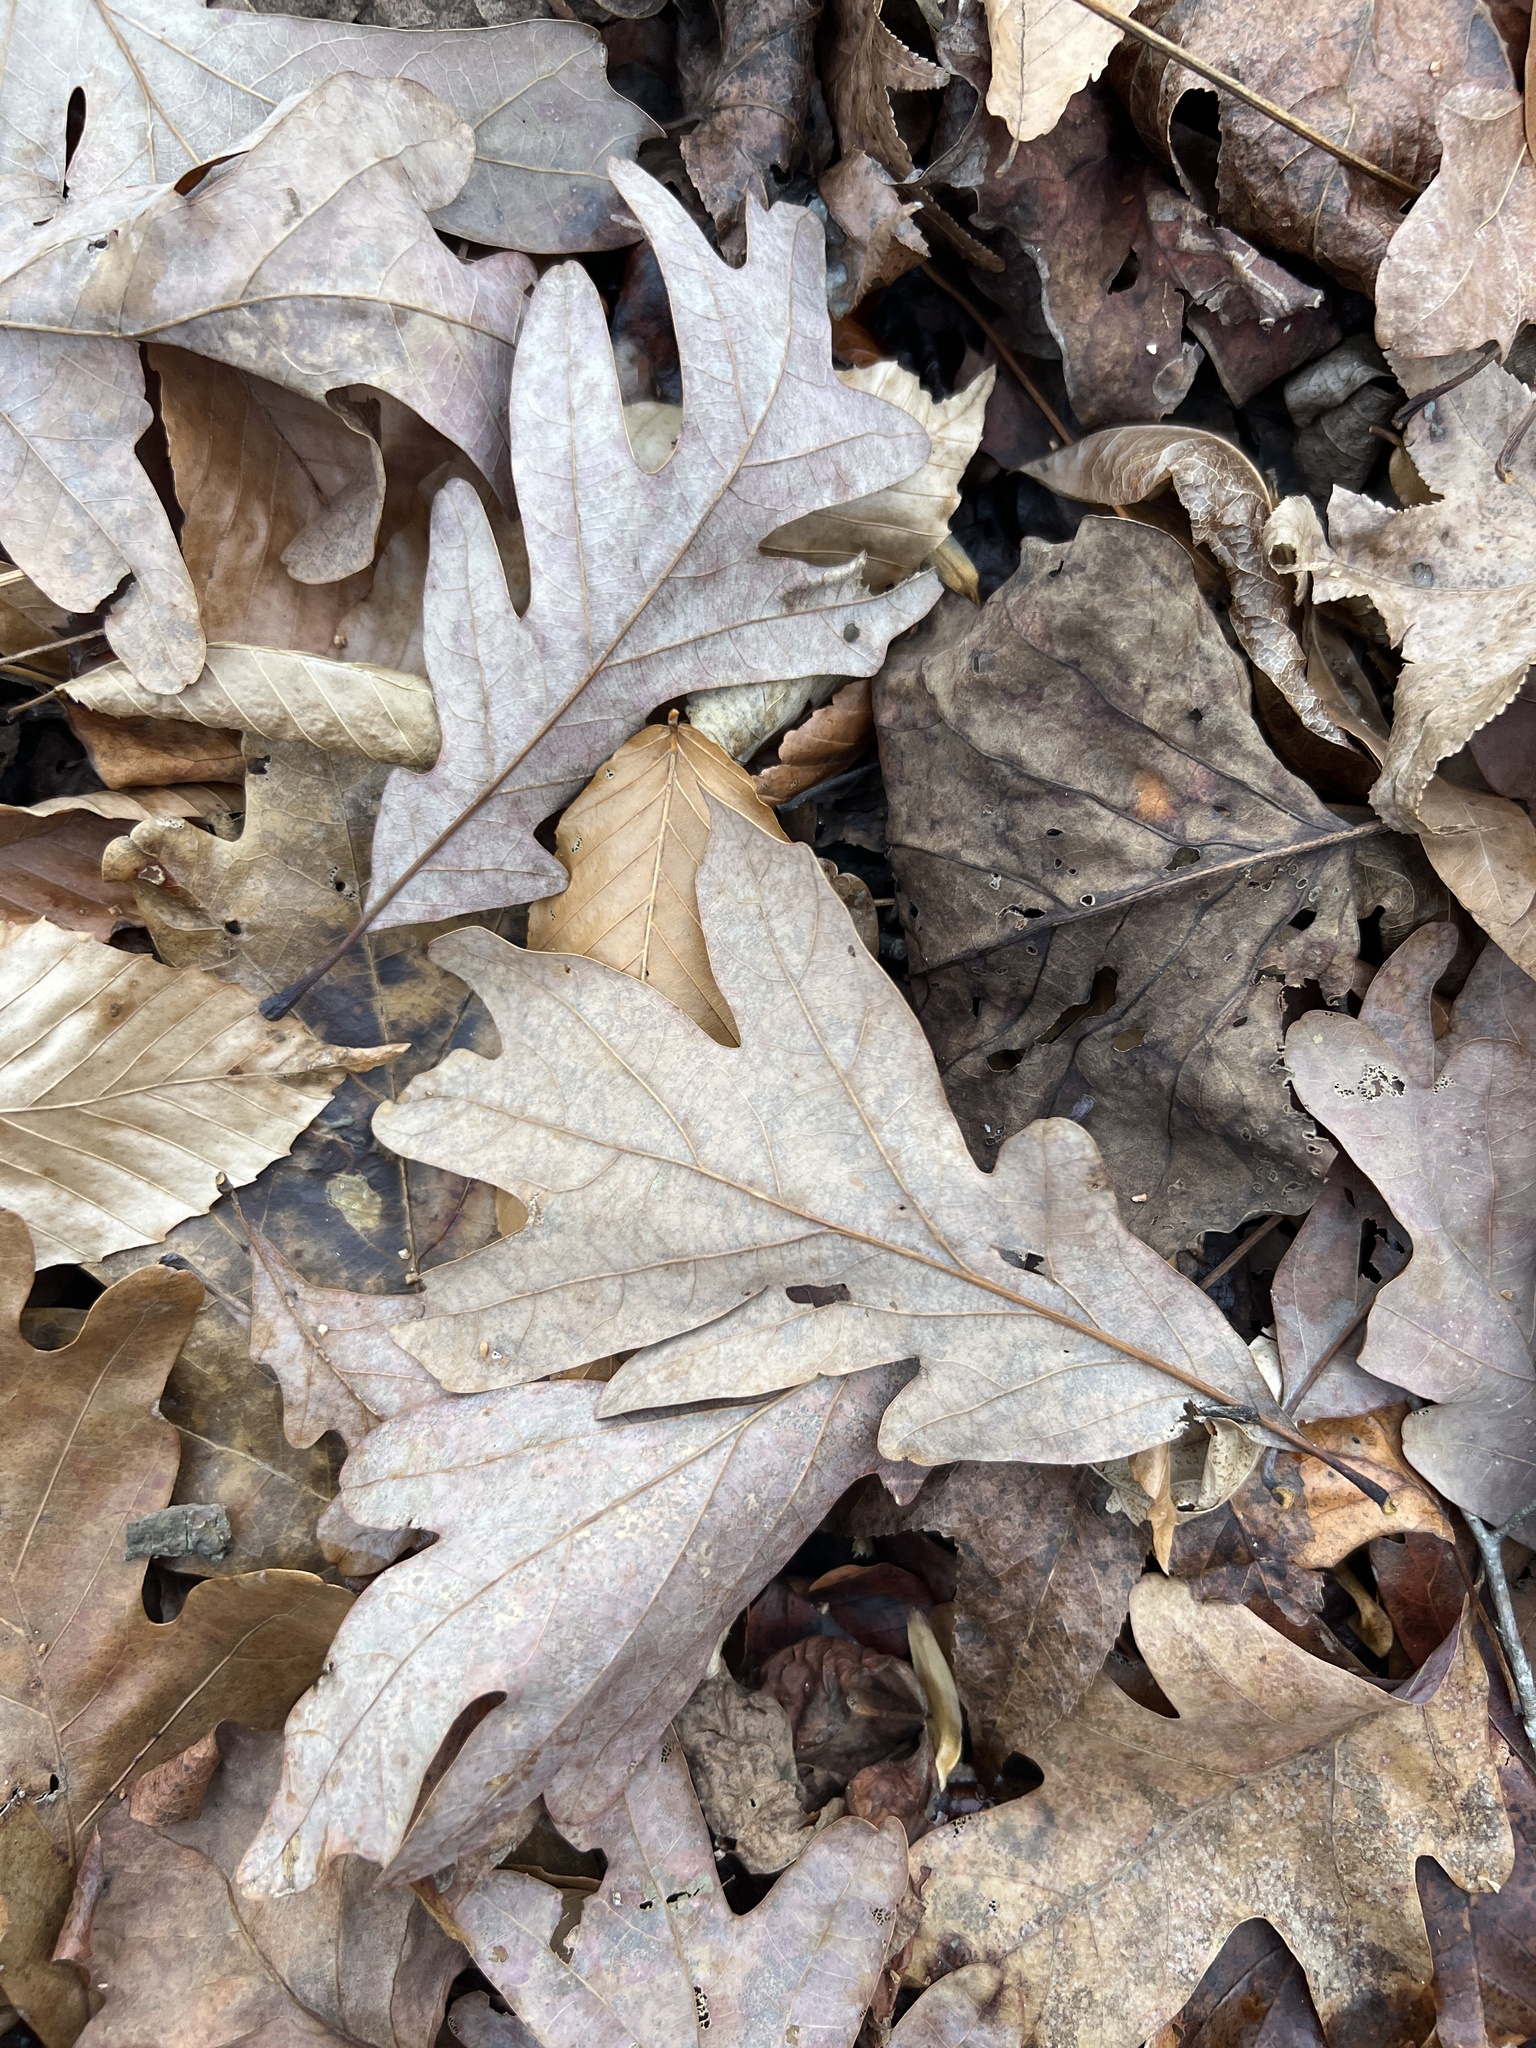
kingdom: Plantae
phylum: Tracheophyta
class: Magnoliopsida
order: Fagales
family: Fagaceae
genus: Quercus
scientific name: Quercus alba
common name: White oak
